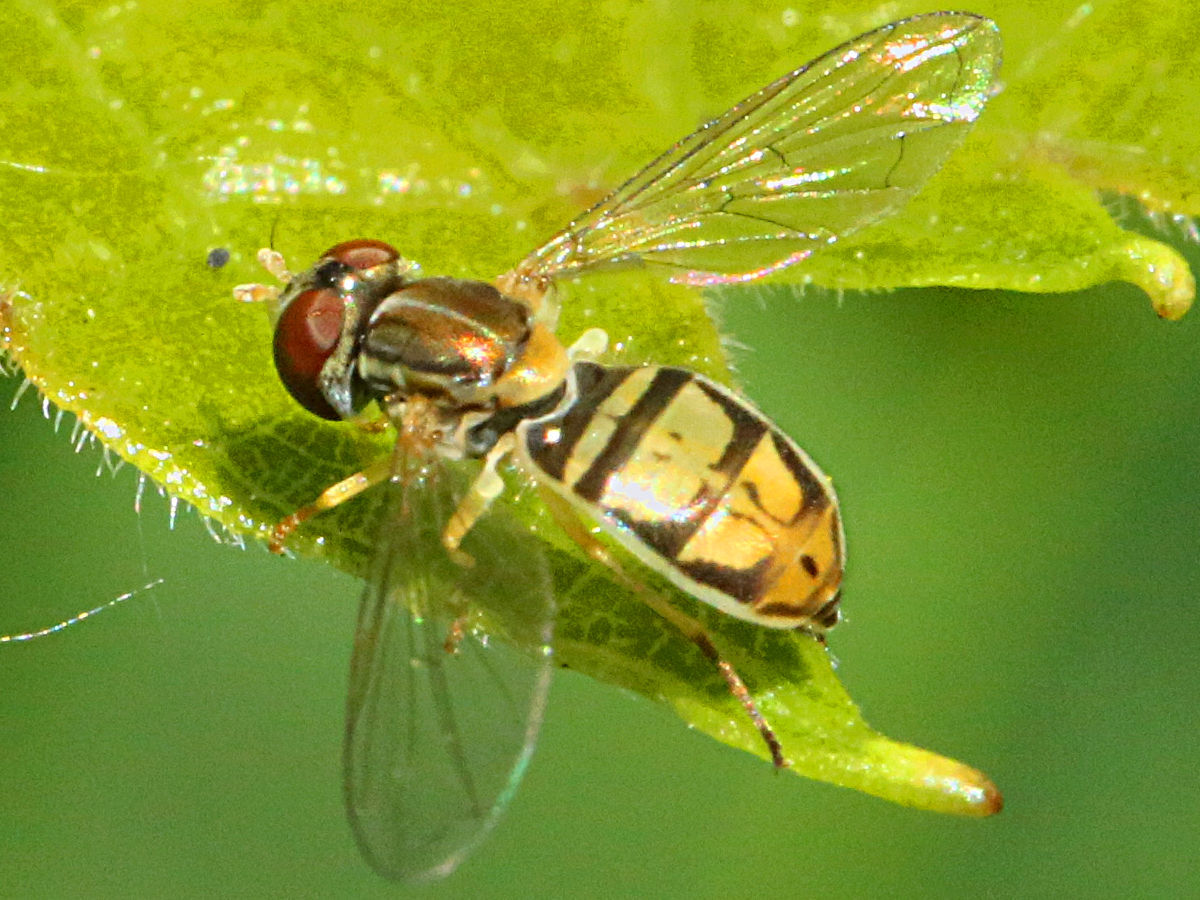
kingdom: Animalia
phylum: Arthropoda
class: Insecta
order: Diptera
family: Syrphidae
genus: Toxomerus
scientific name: Toxomerus marginatus
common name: Syrphid fly
